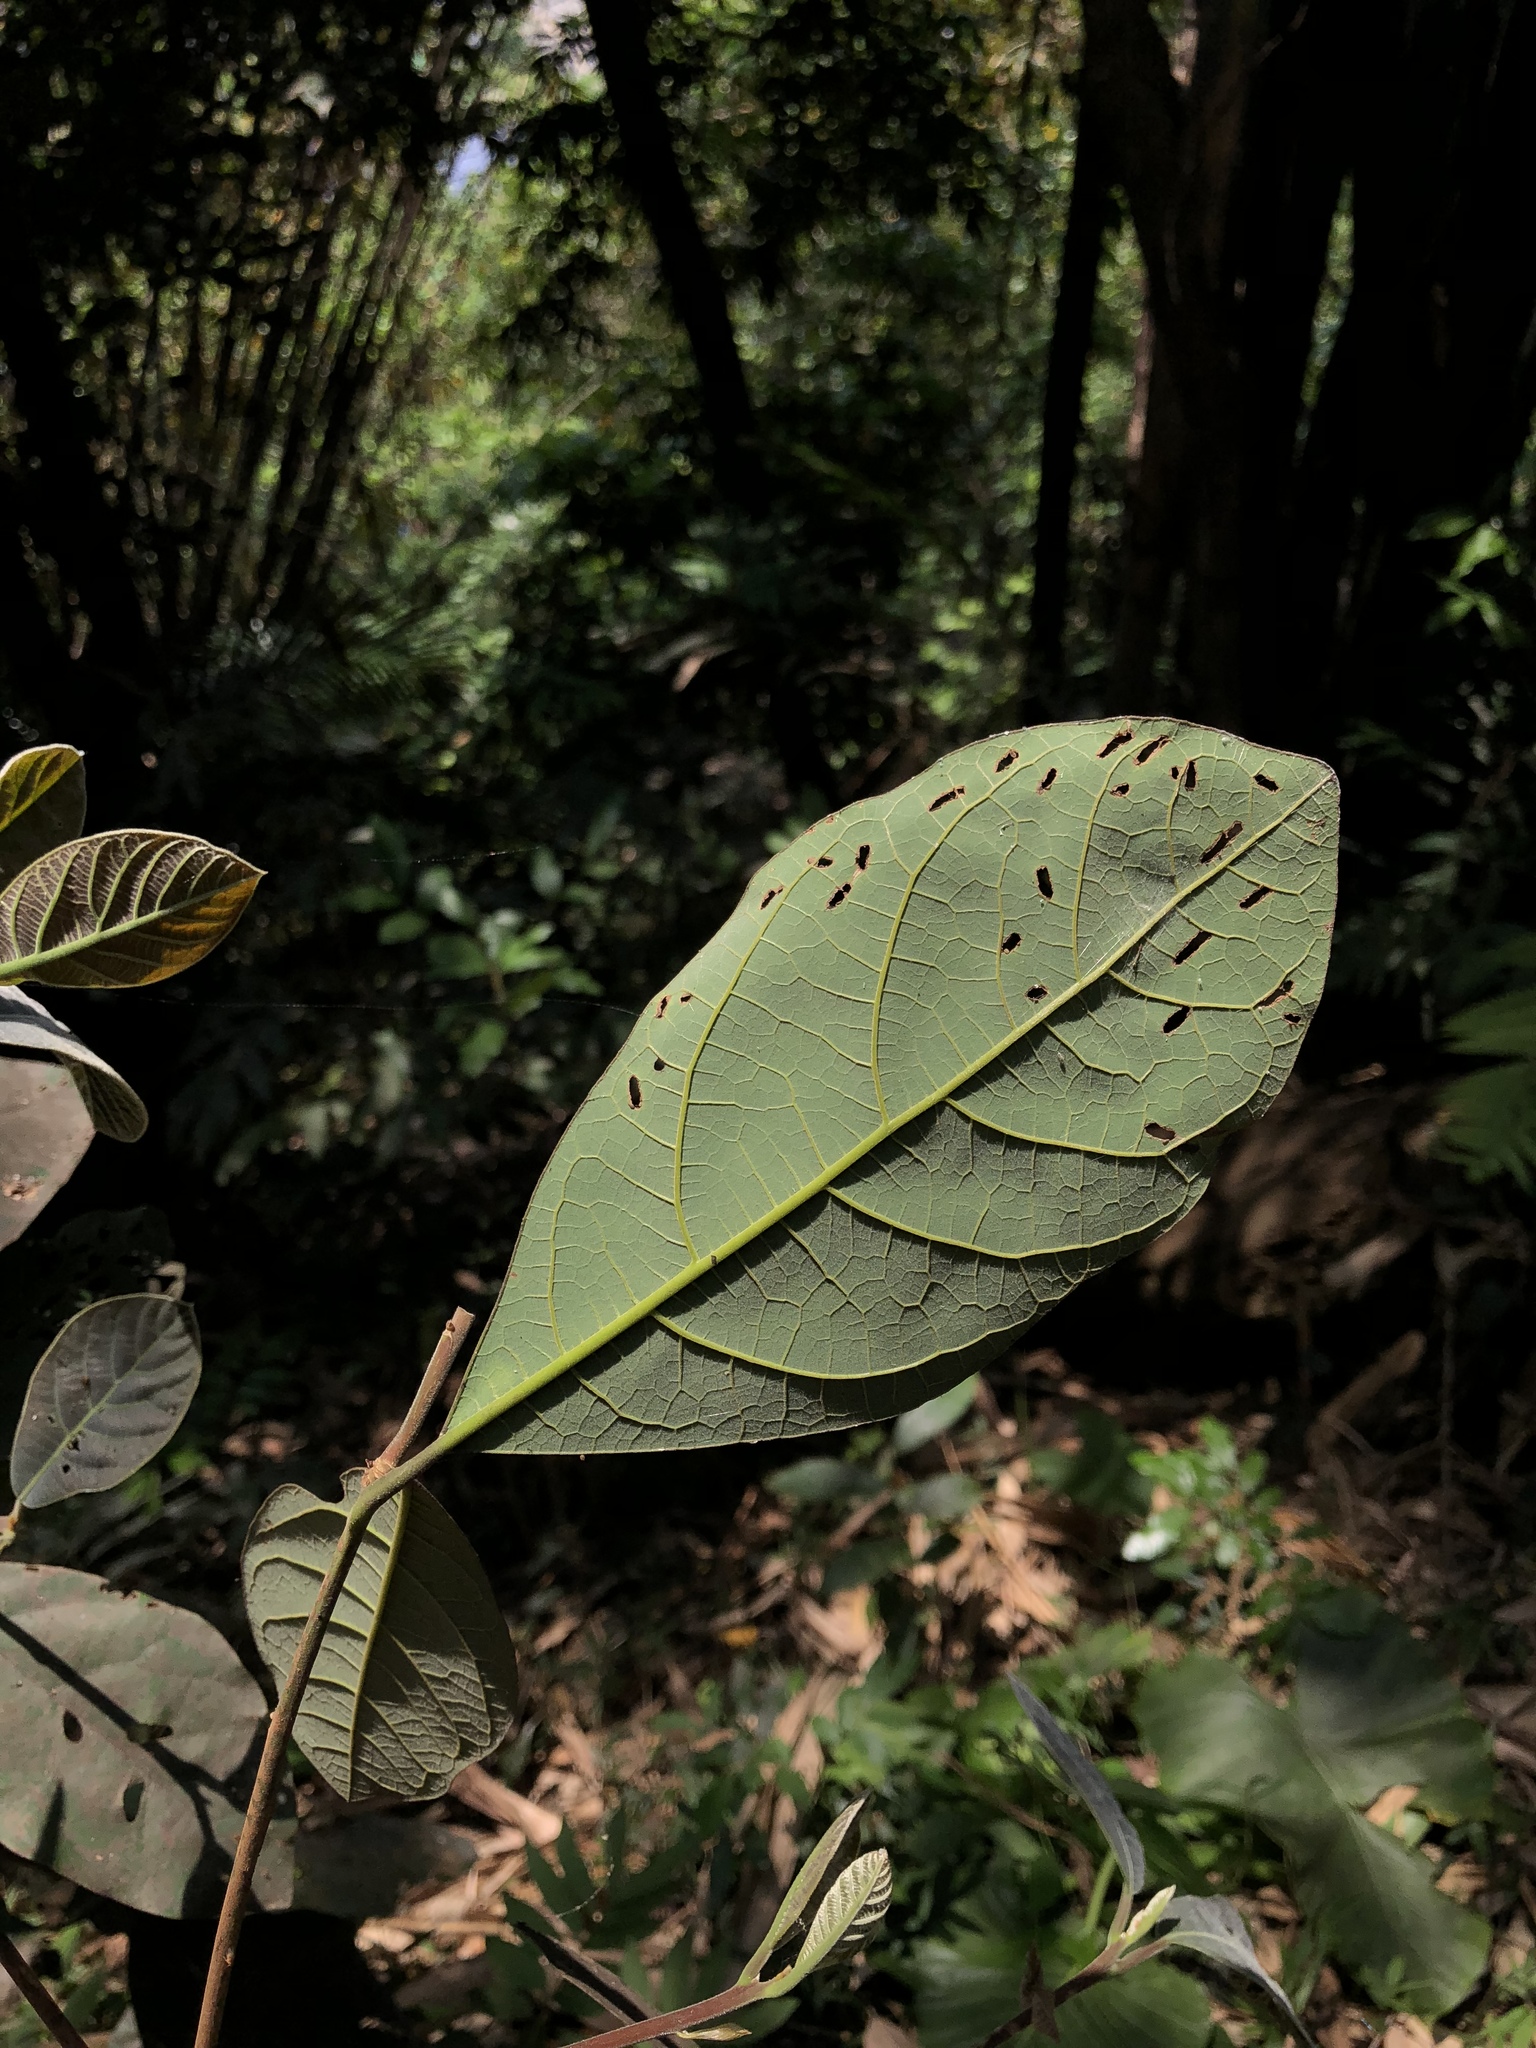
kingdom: Plantae
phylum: Tracheophyta
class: Magnoliopsida
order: Laurales
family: Lauraceae
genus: Litsea
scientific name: Litsea akoensis
